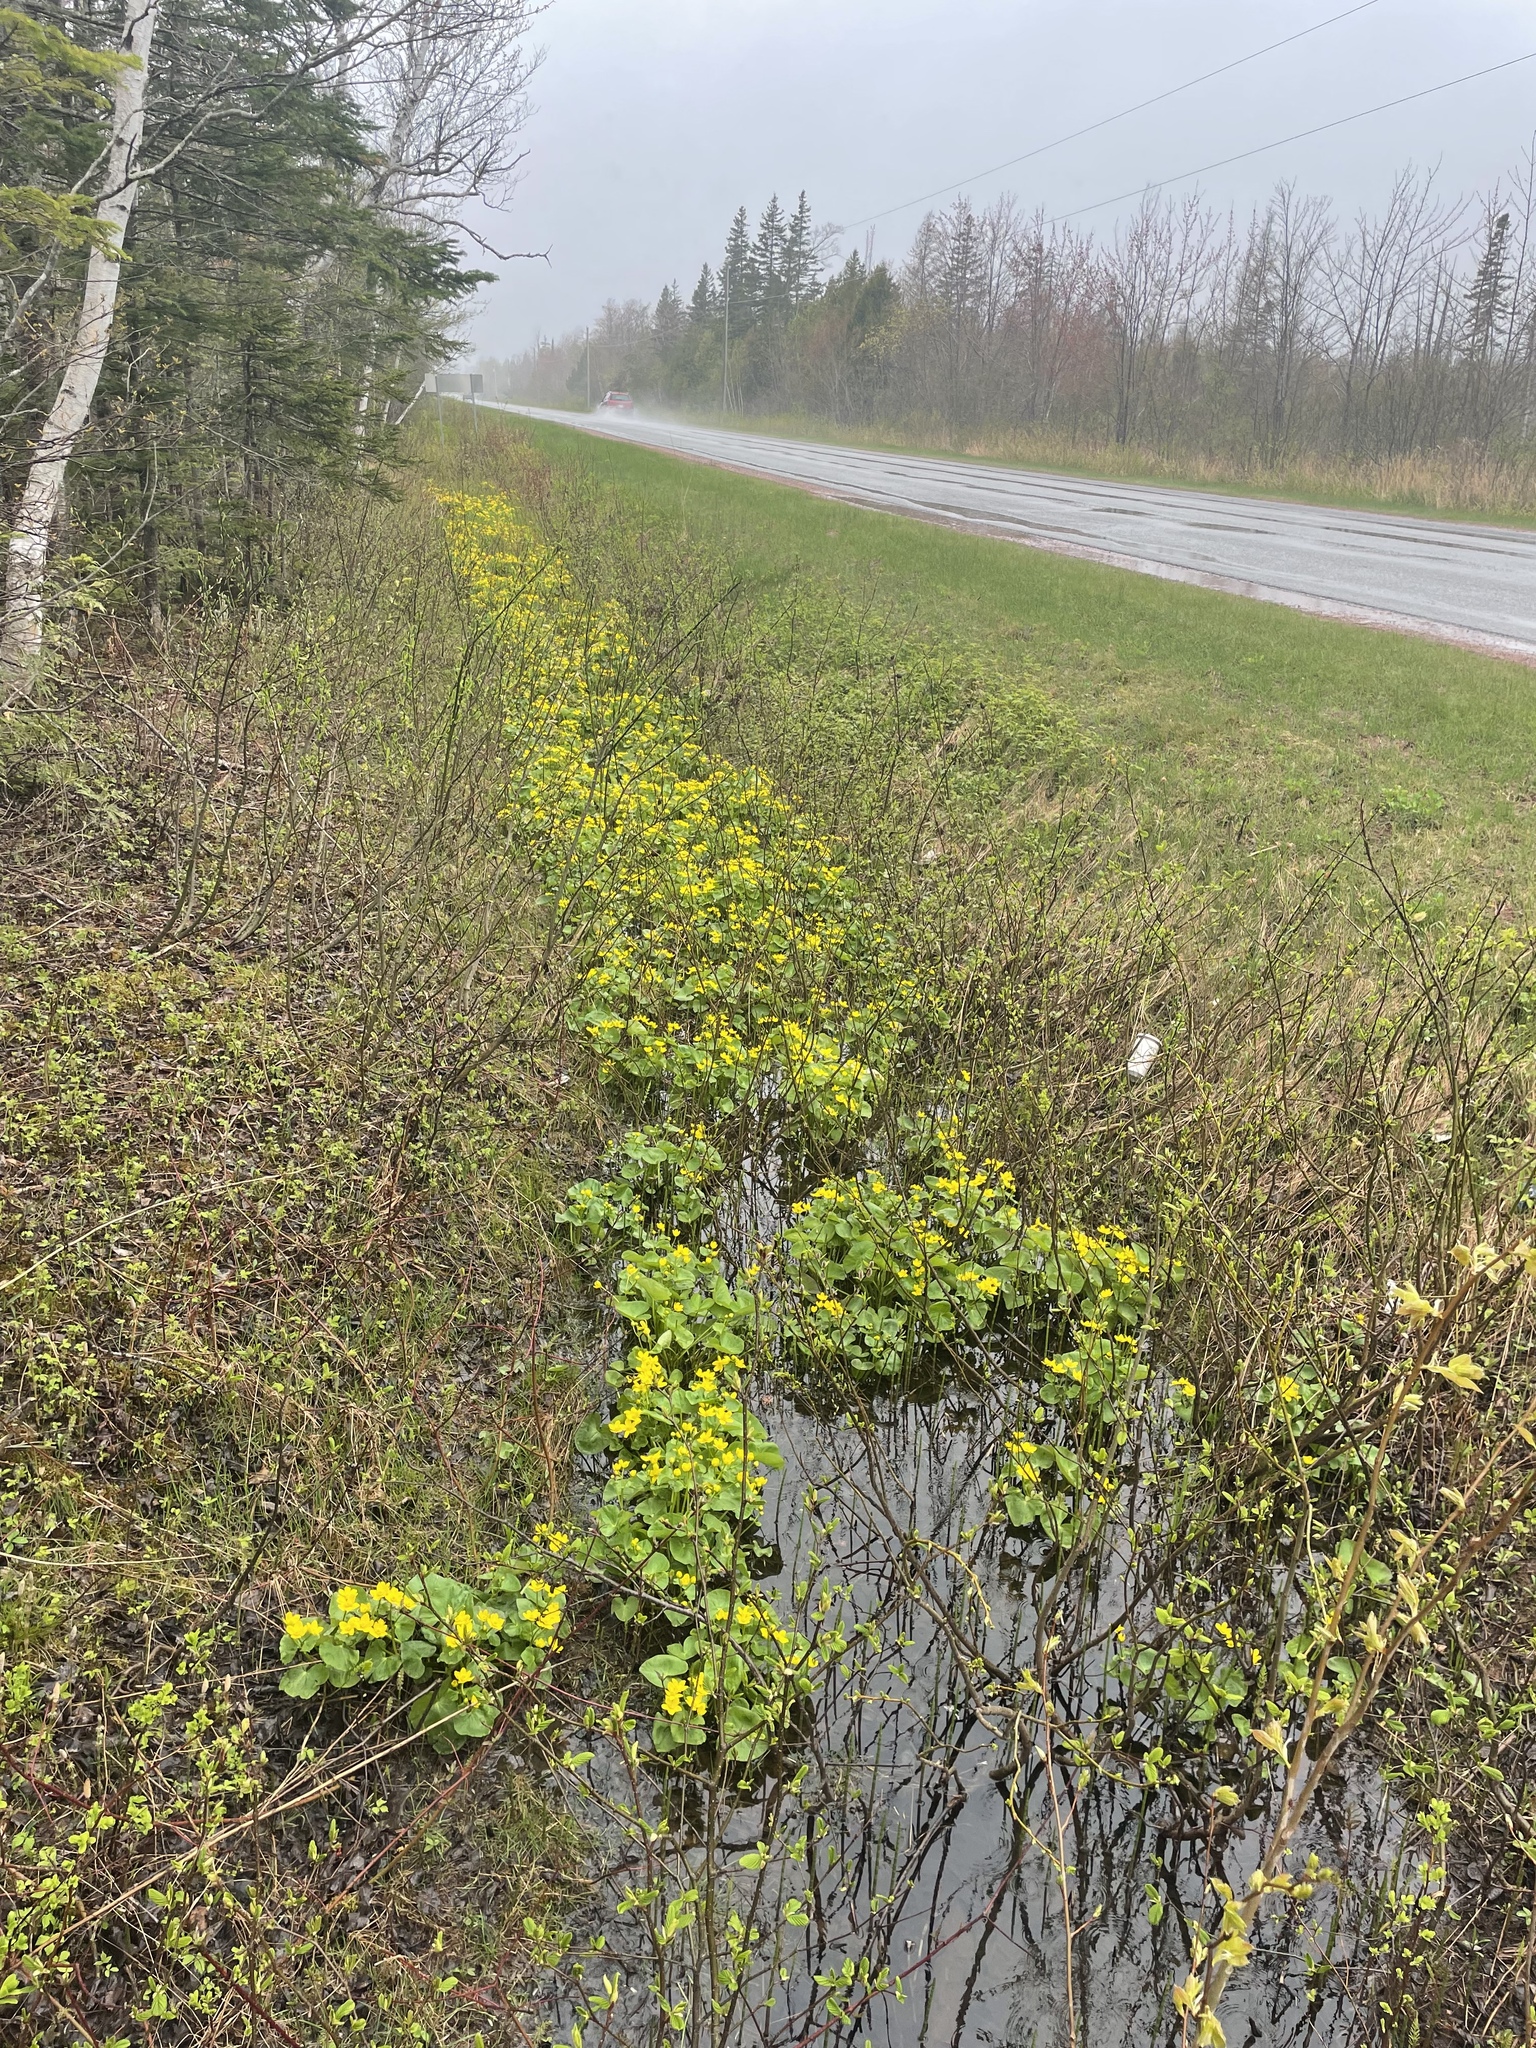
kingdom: Plantae
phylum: Tracheophyta
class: Magnoliopsida
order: Ranunculales
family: Ranunculaceae
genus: Caltha
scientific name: Caltha palustris
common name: Marsh marigold
